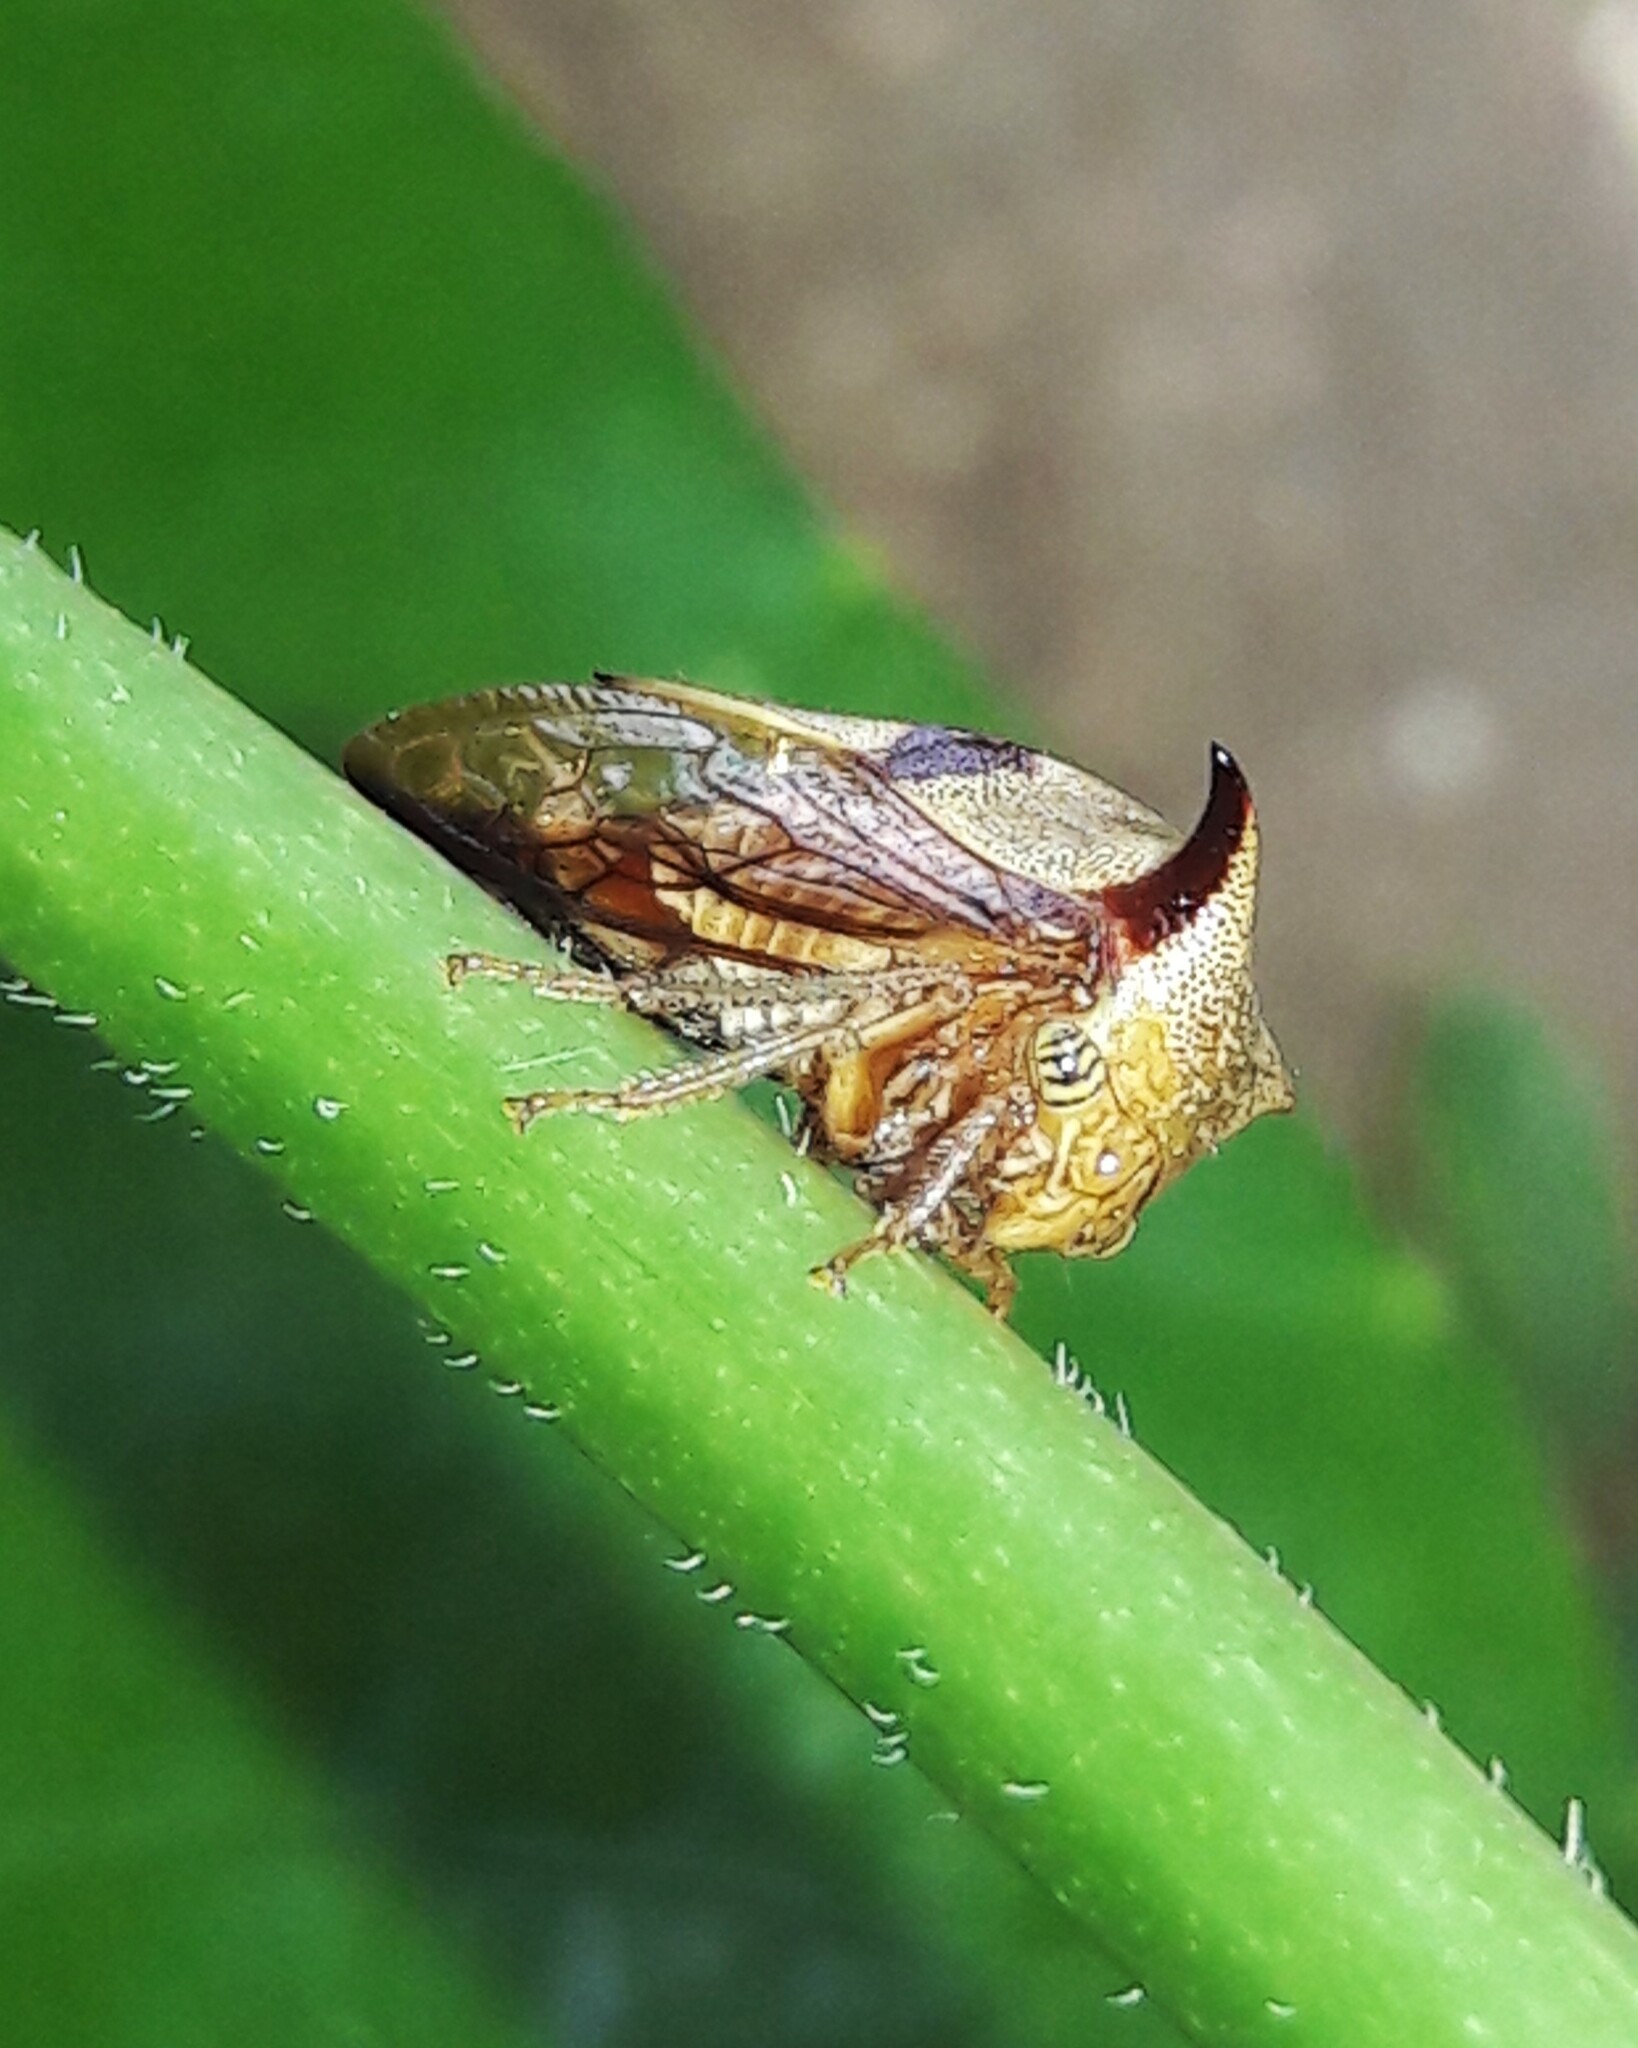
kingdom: Animalia
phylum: Arthropoda
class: Insecta
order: Hemiptera
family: Membracidae
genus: Ceresa
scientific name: Ceresa paulistana
